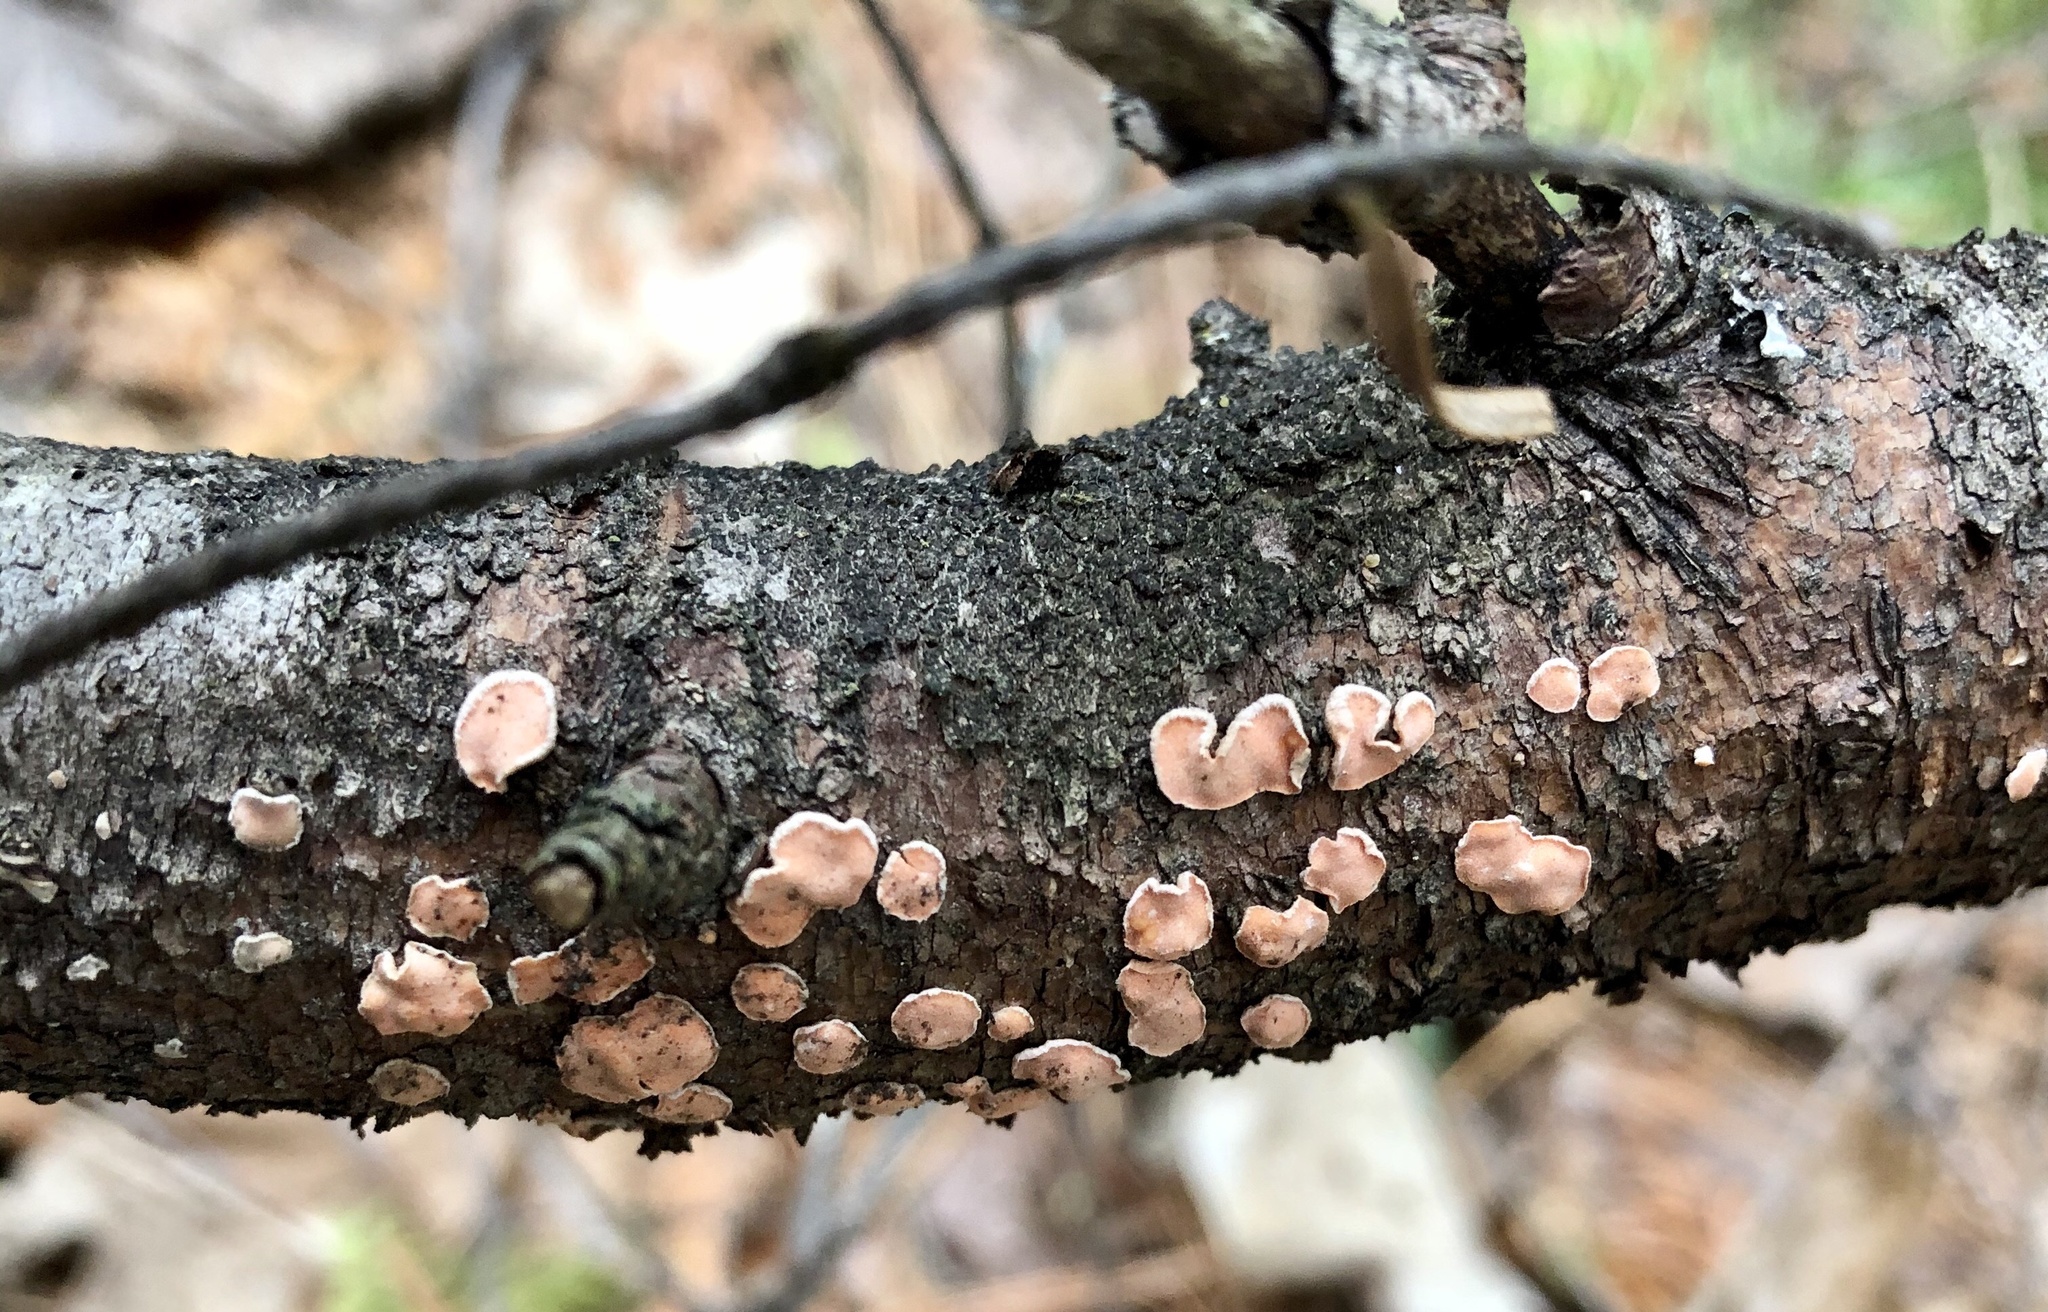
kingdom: Fungi
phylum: Basidiomycota
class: Agaricomycetes
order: Russulales
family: Stereaceae
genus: Aleurodiscus
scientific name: Aleurodiscus amorphus
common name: Orange discus
